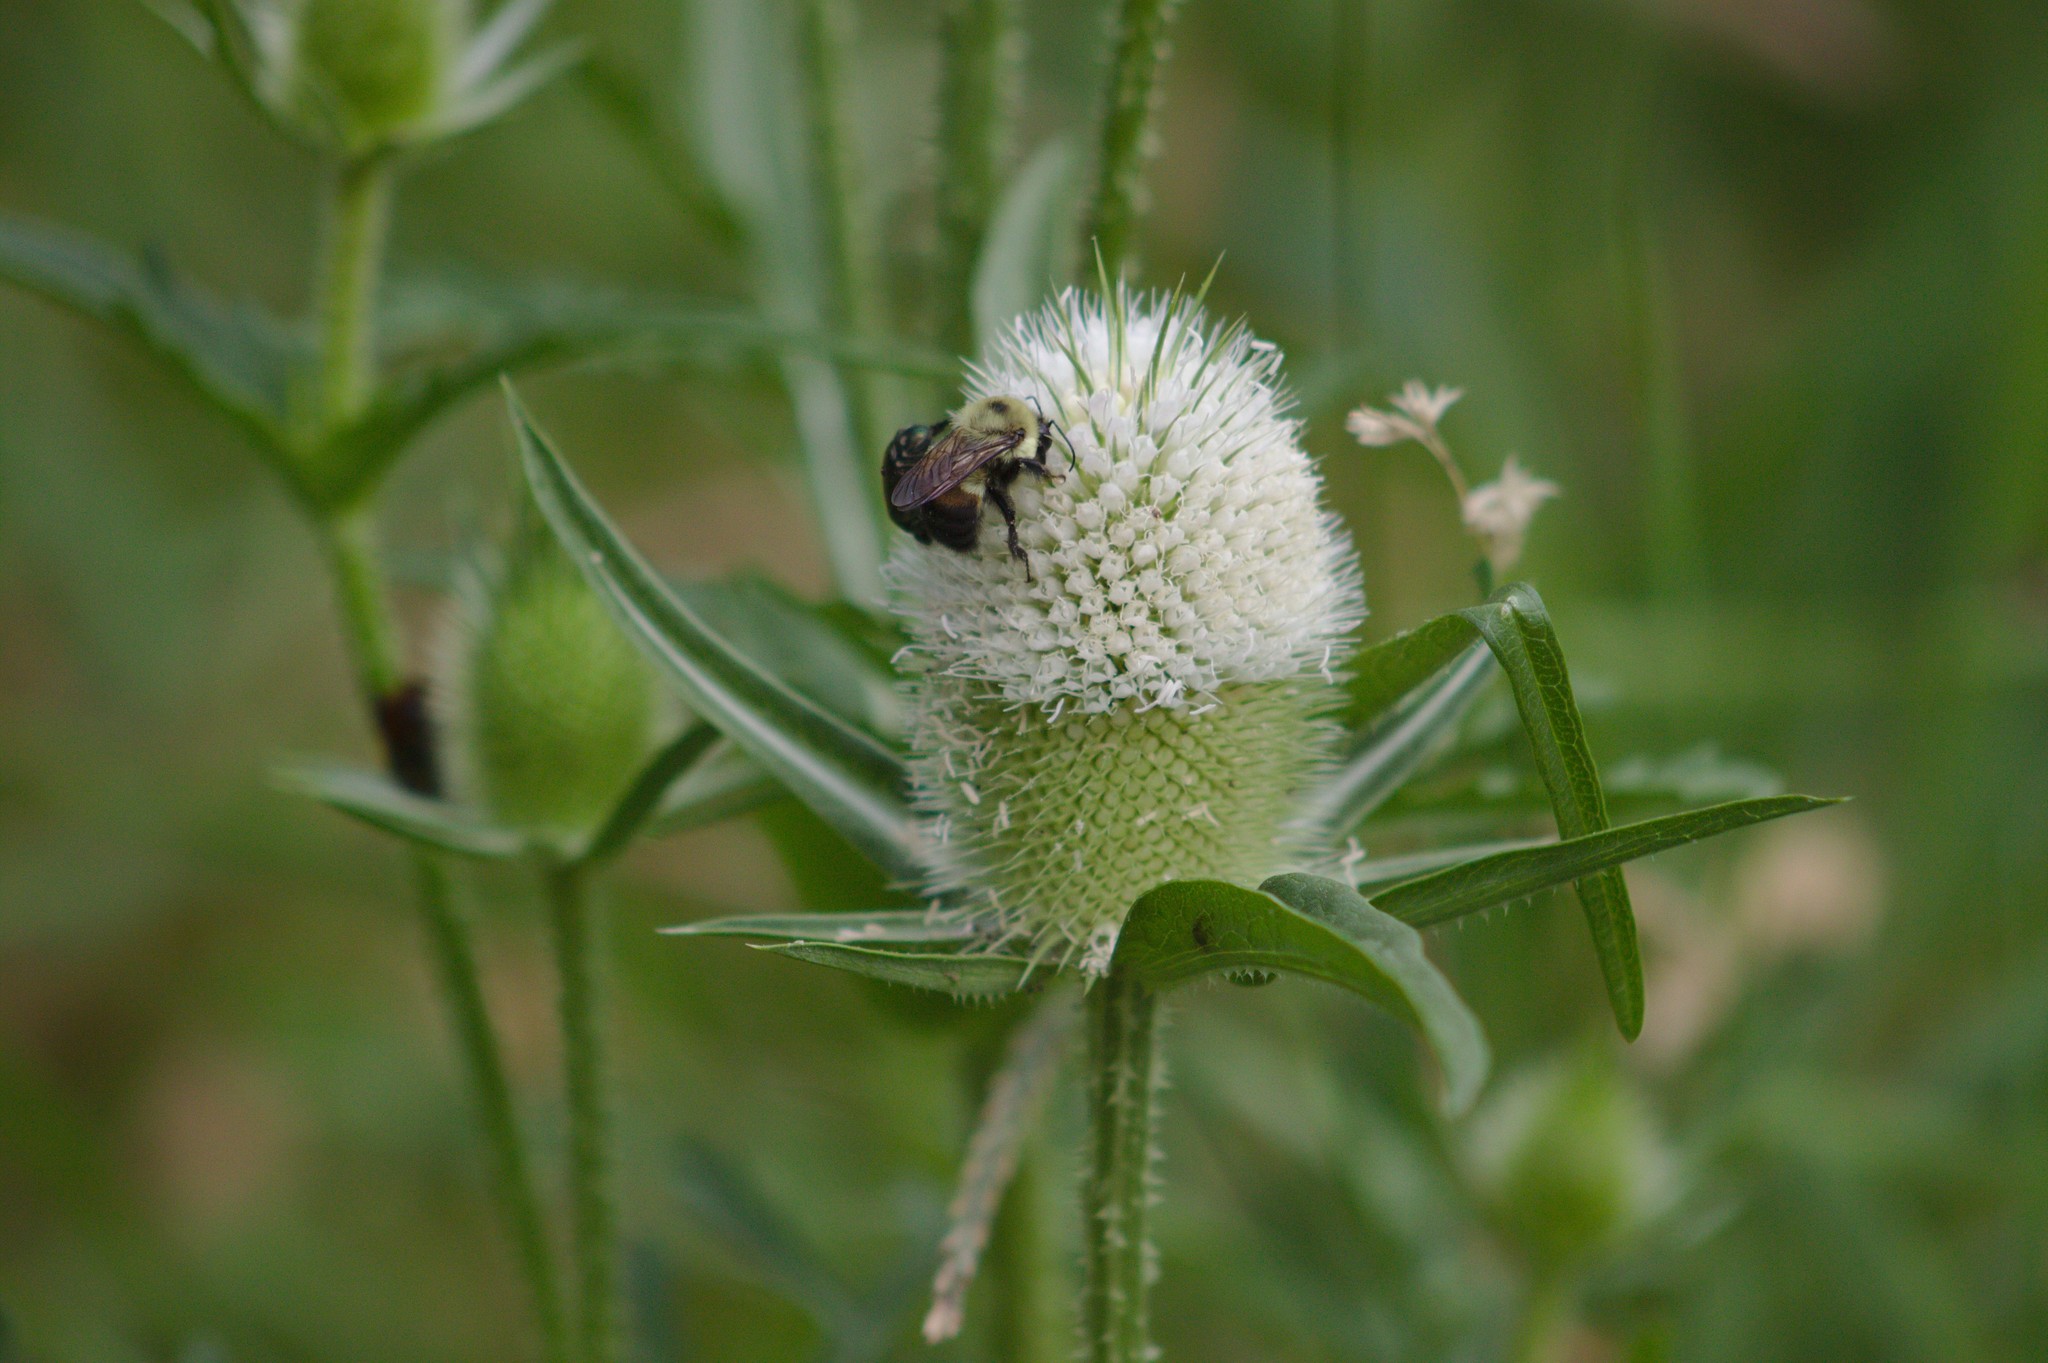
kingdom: Plantae
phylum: Tracheophyta
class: Magnoliopsida
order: Dipsacales
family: Caprifoliaceae
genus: Dipsacus
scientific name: Dipsacus laciniatus
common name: Cut-leaved teasel
